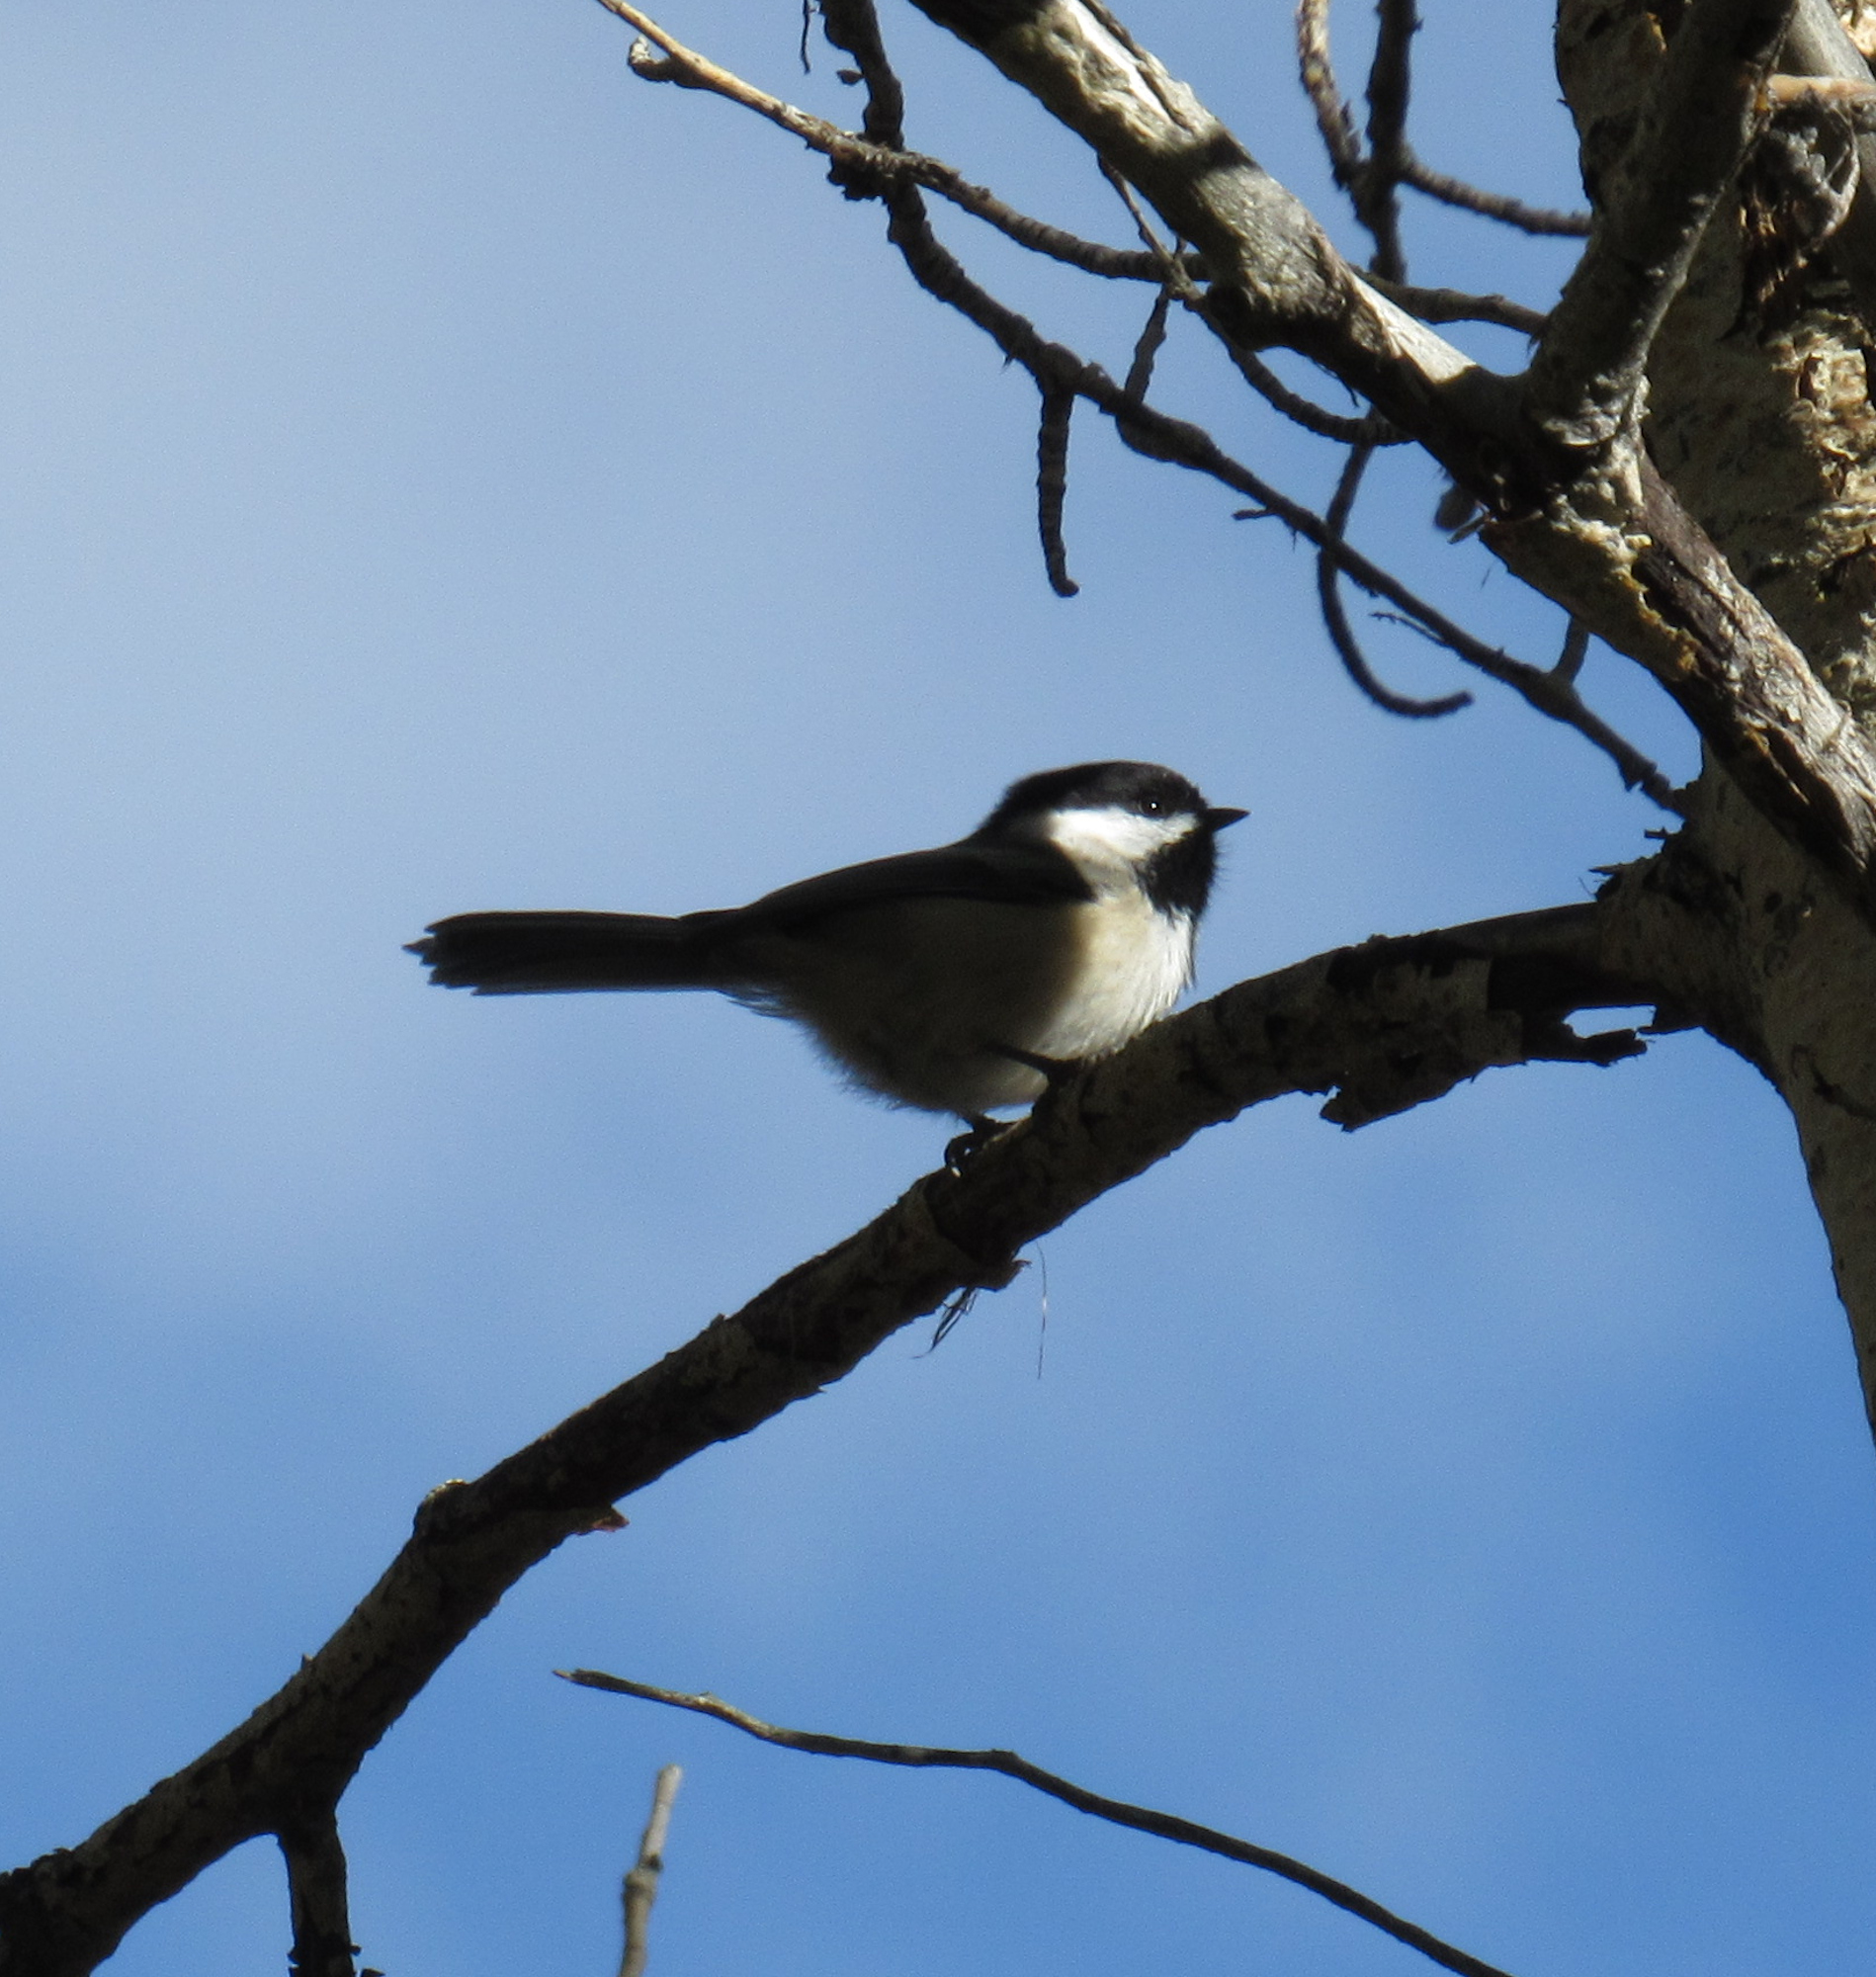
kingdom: Animalia
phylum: Chordata
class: Aves
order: Passeriformes
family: Paridae
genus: Poecile
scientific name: Poecile atricapillus
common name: Black-capped chickadee
